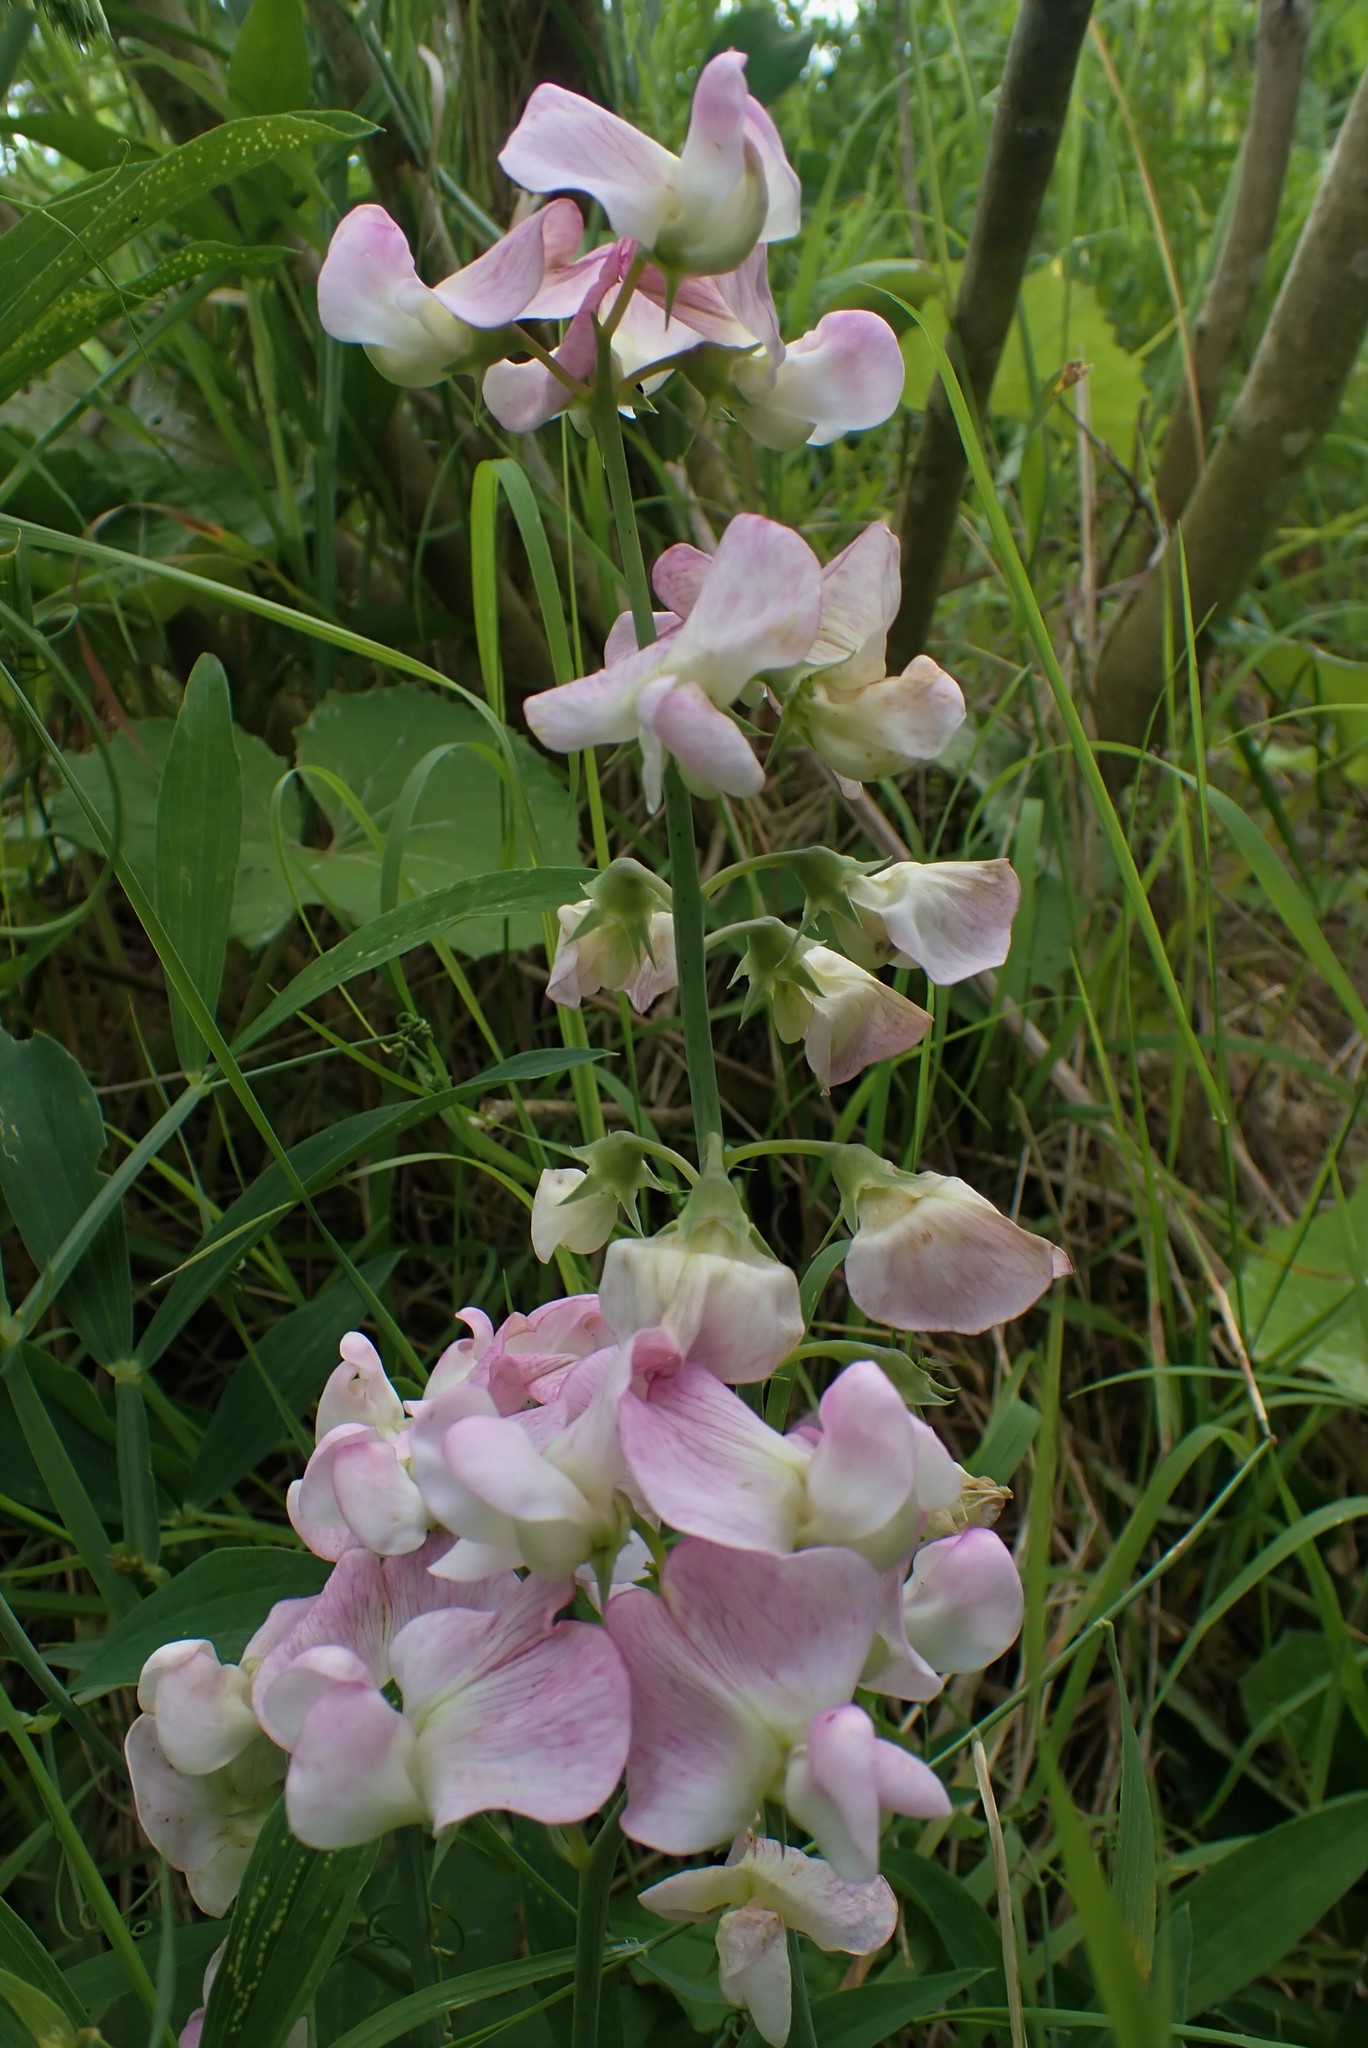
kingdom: Plantae
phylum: Tracheophyta
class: Magnoliopsida
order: Fabales
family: Fabaceae
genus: Lathyrus
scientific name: Lathyrus latifolius
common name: Perennial pea
